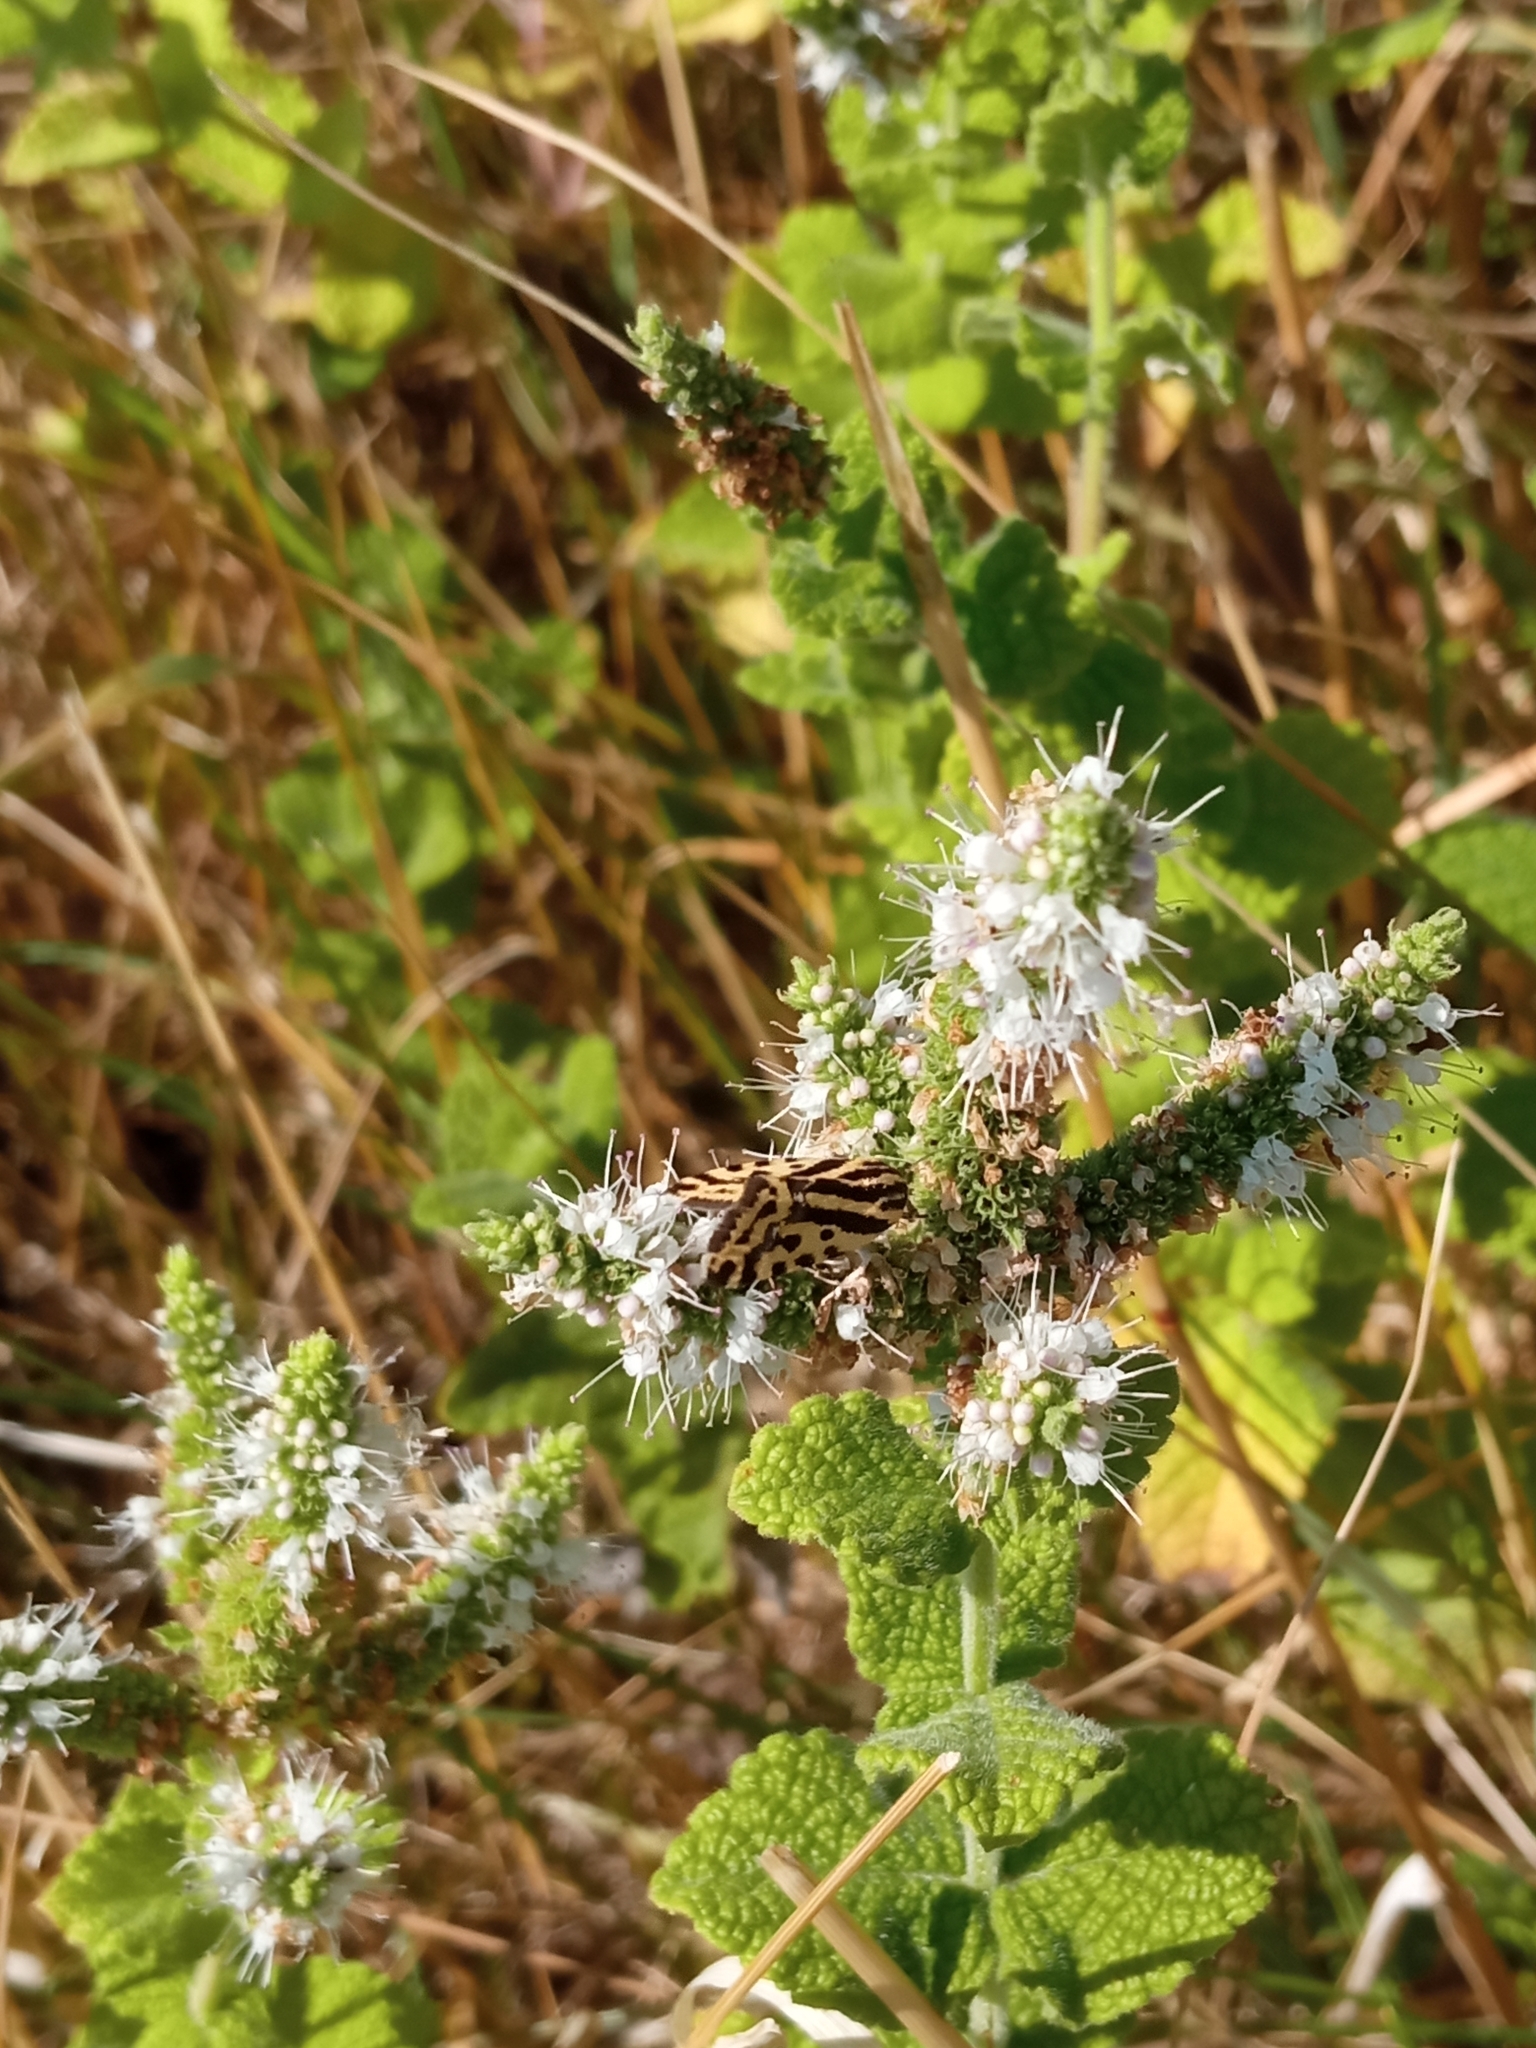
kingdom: Animalia
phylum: Arthropoda
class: Insecta
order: Lepidoptera
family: Noctuidae
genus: Acontia
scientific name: Acontia trabealis
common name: Spotted sulphur
